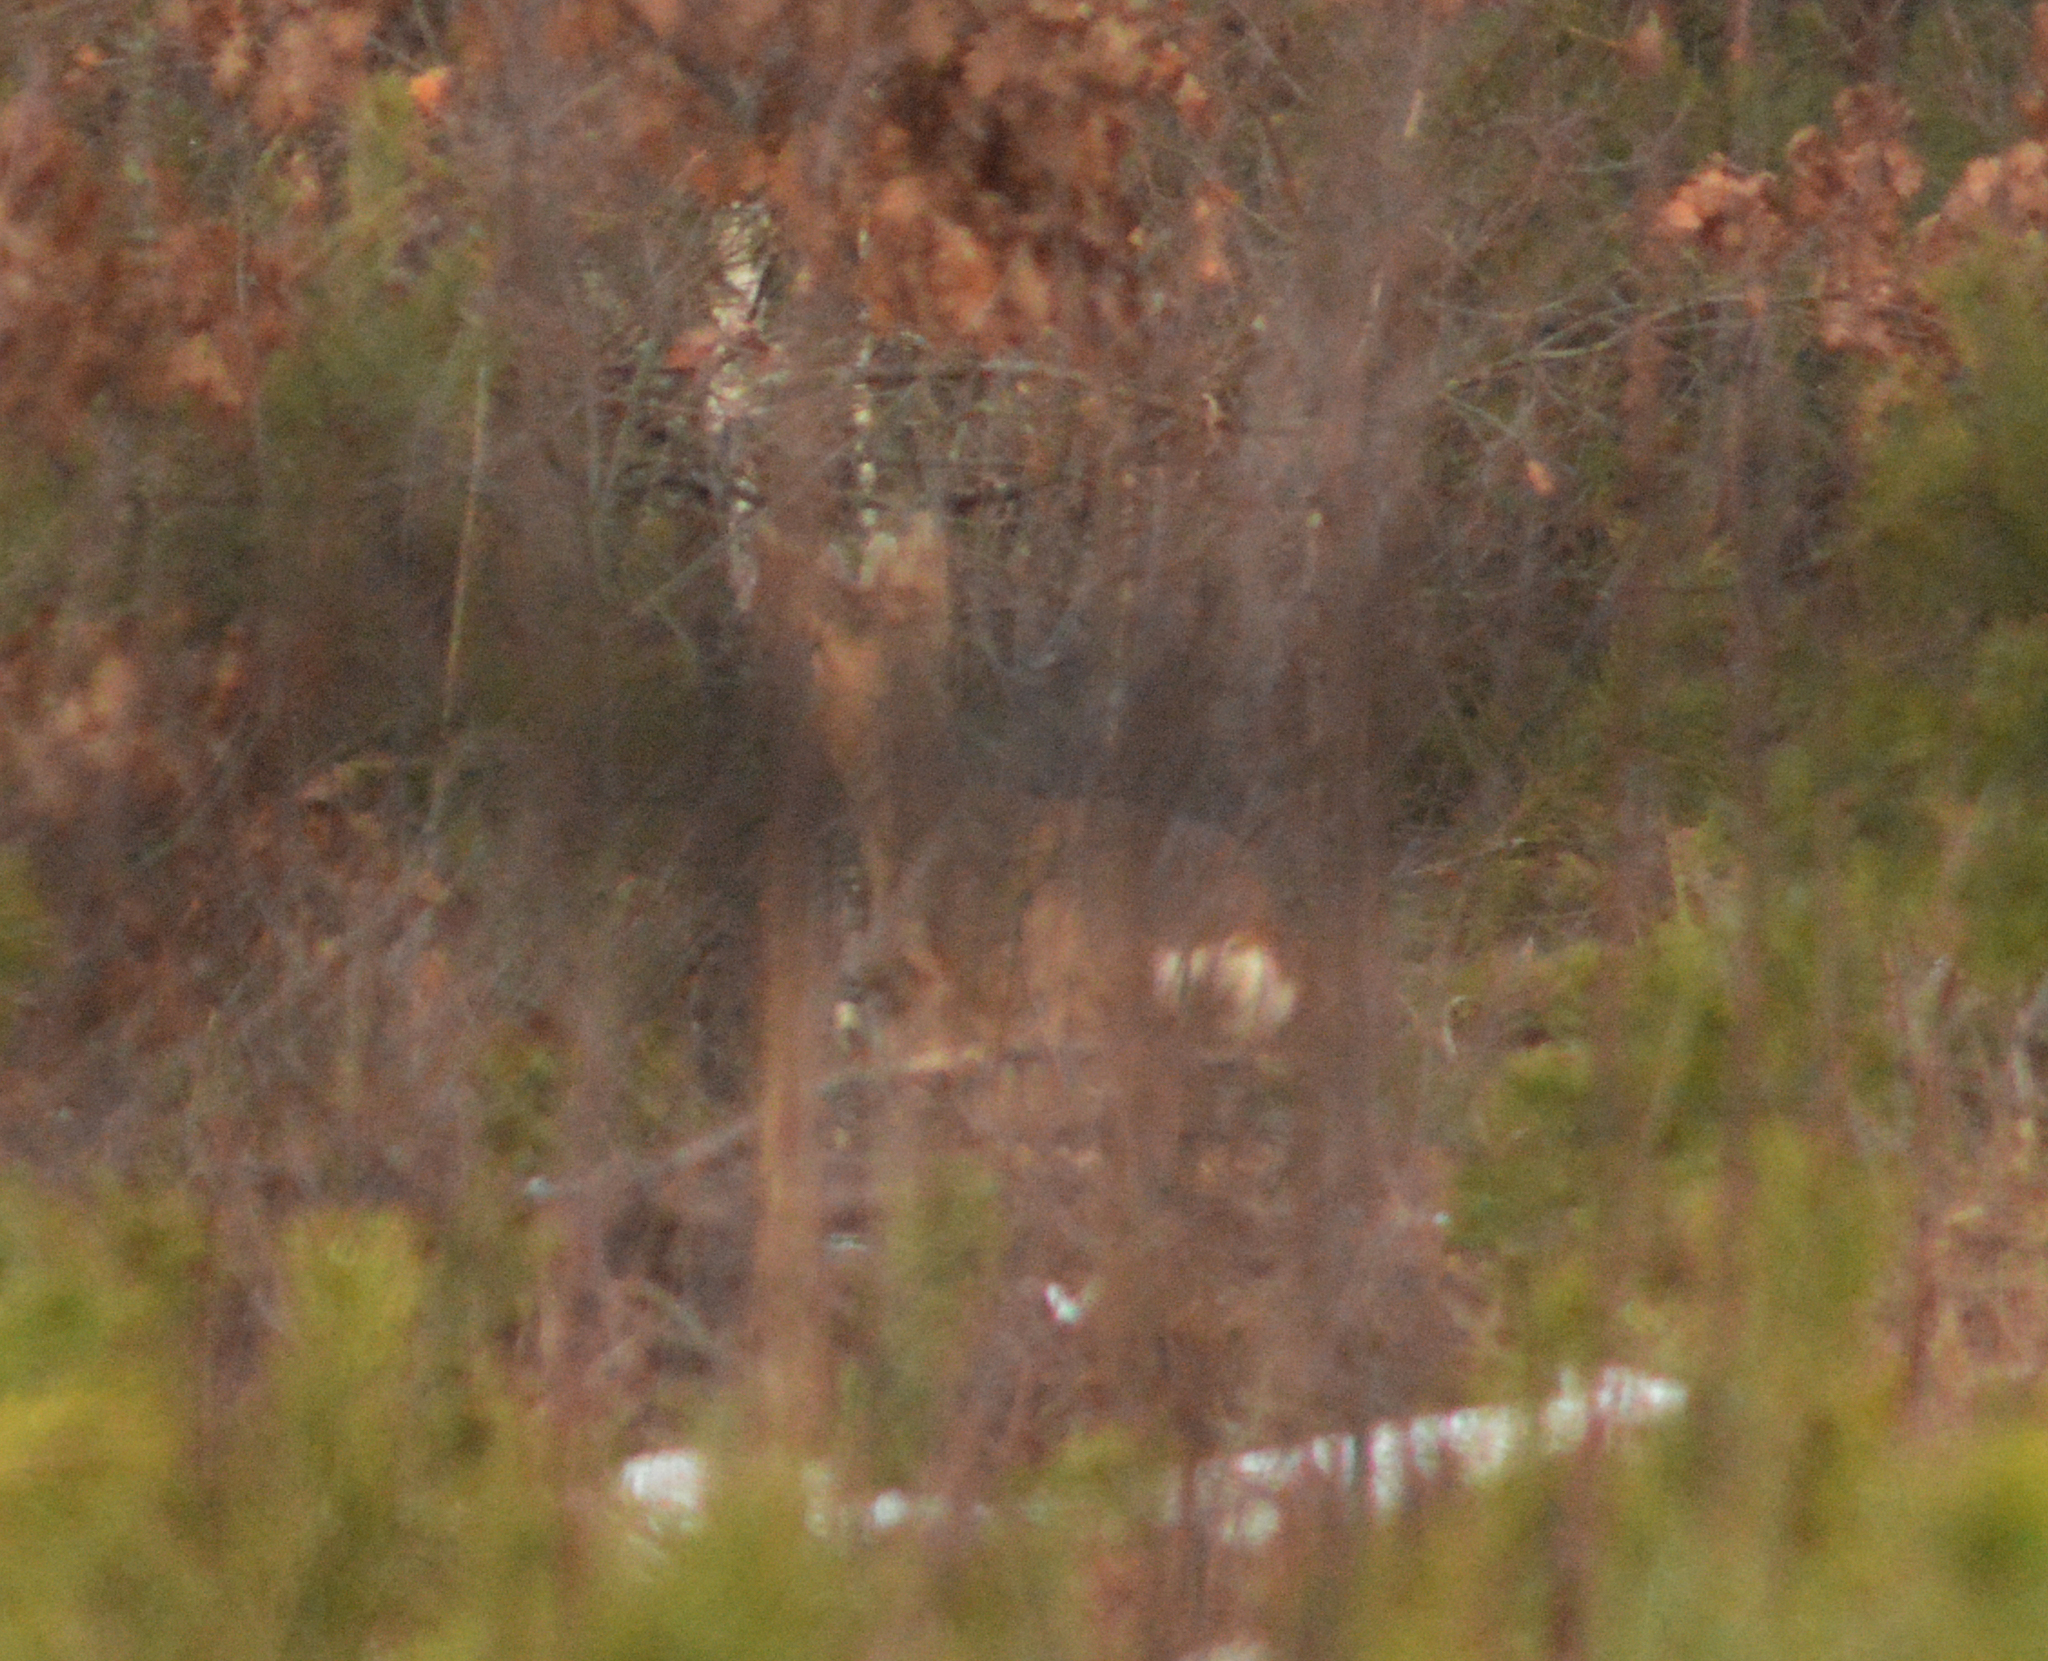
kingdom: Animalia
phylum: Chordata
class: Mammalia
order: Artiodactyla
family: Cervidae
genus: Capreolus
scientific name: Capreolus capreolus
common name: Western roe deer
